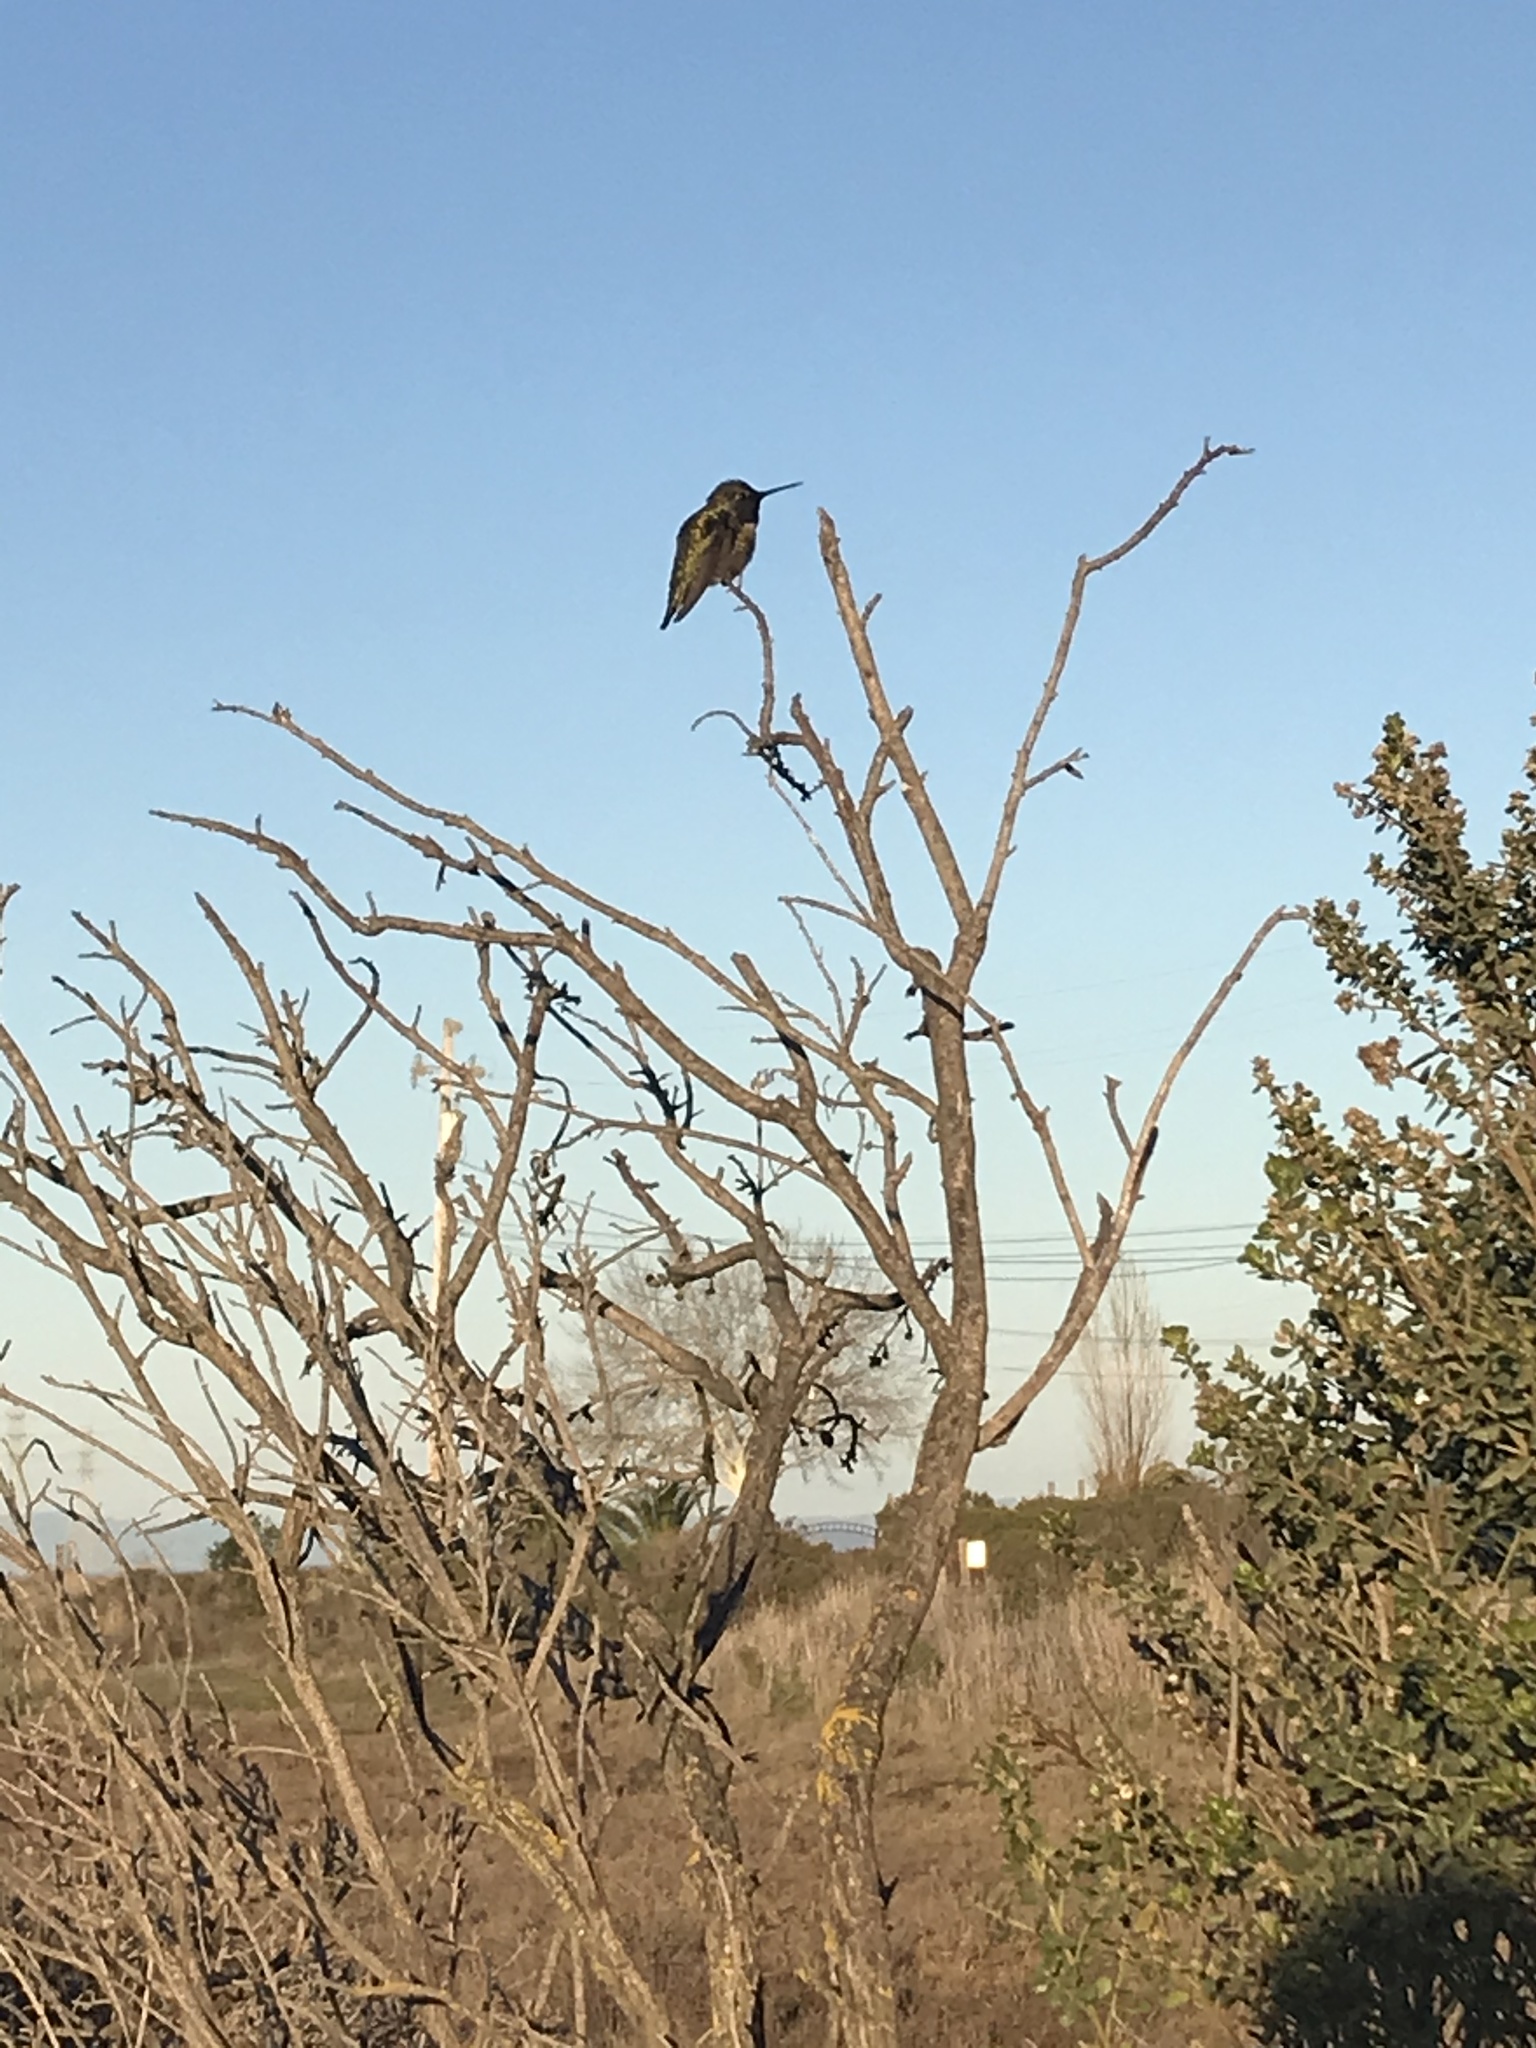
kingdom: Animalia
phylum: Chordata
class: Aves
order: Apodiformes
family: Trochilidae
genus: Calypte
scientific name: Calypte anna
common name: Anna's hummingbird
